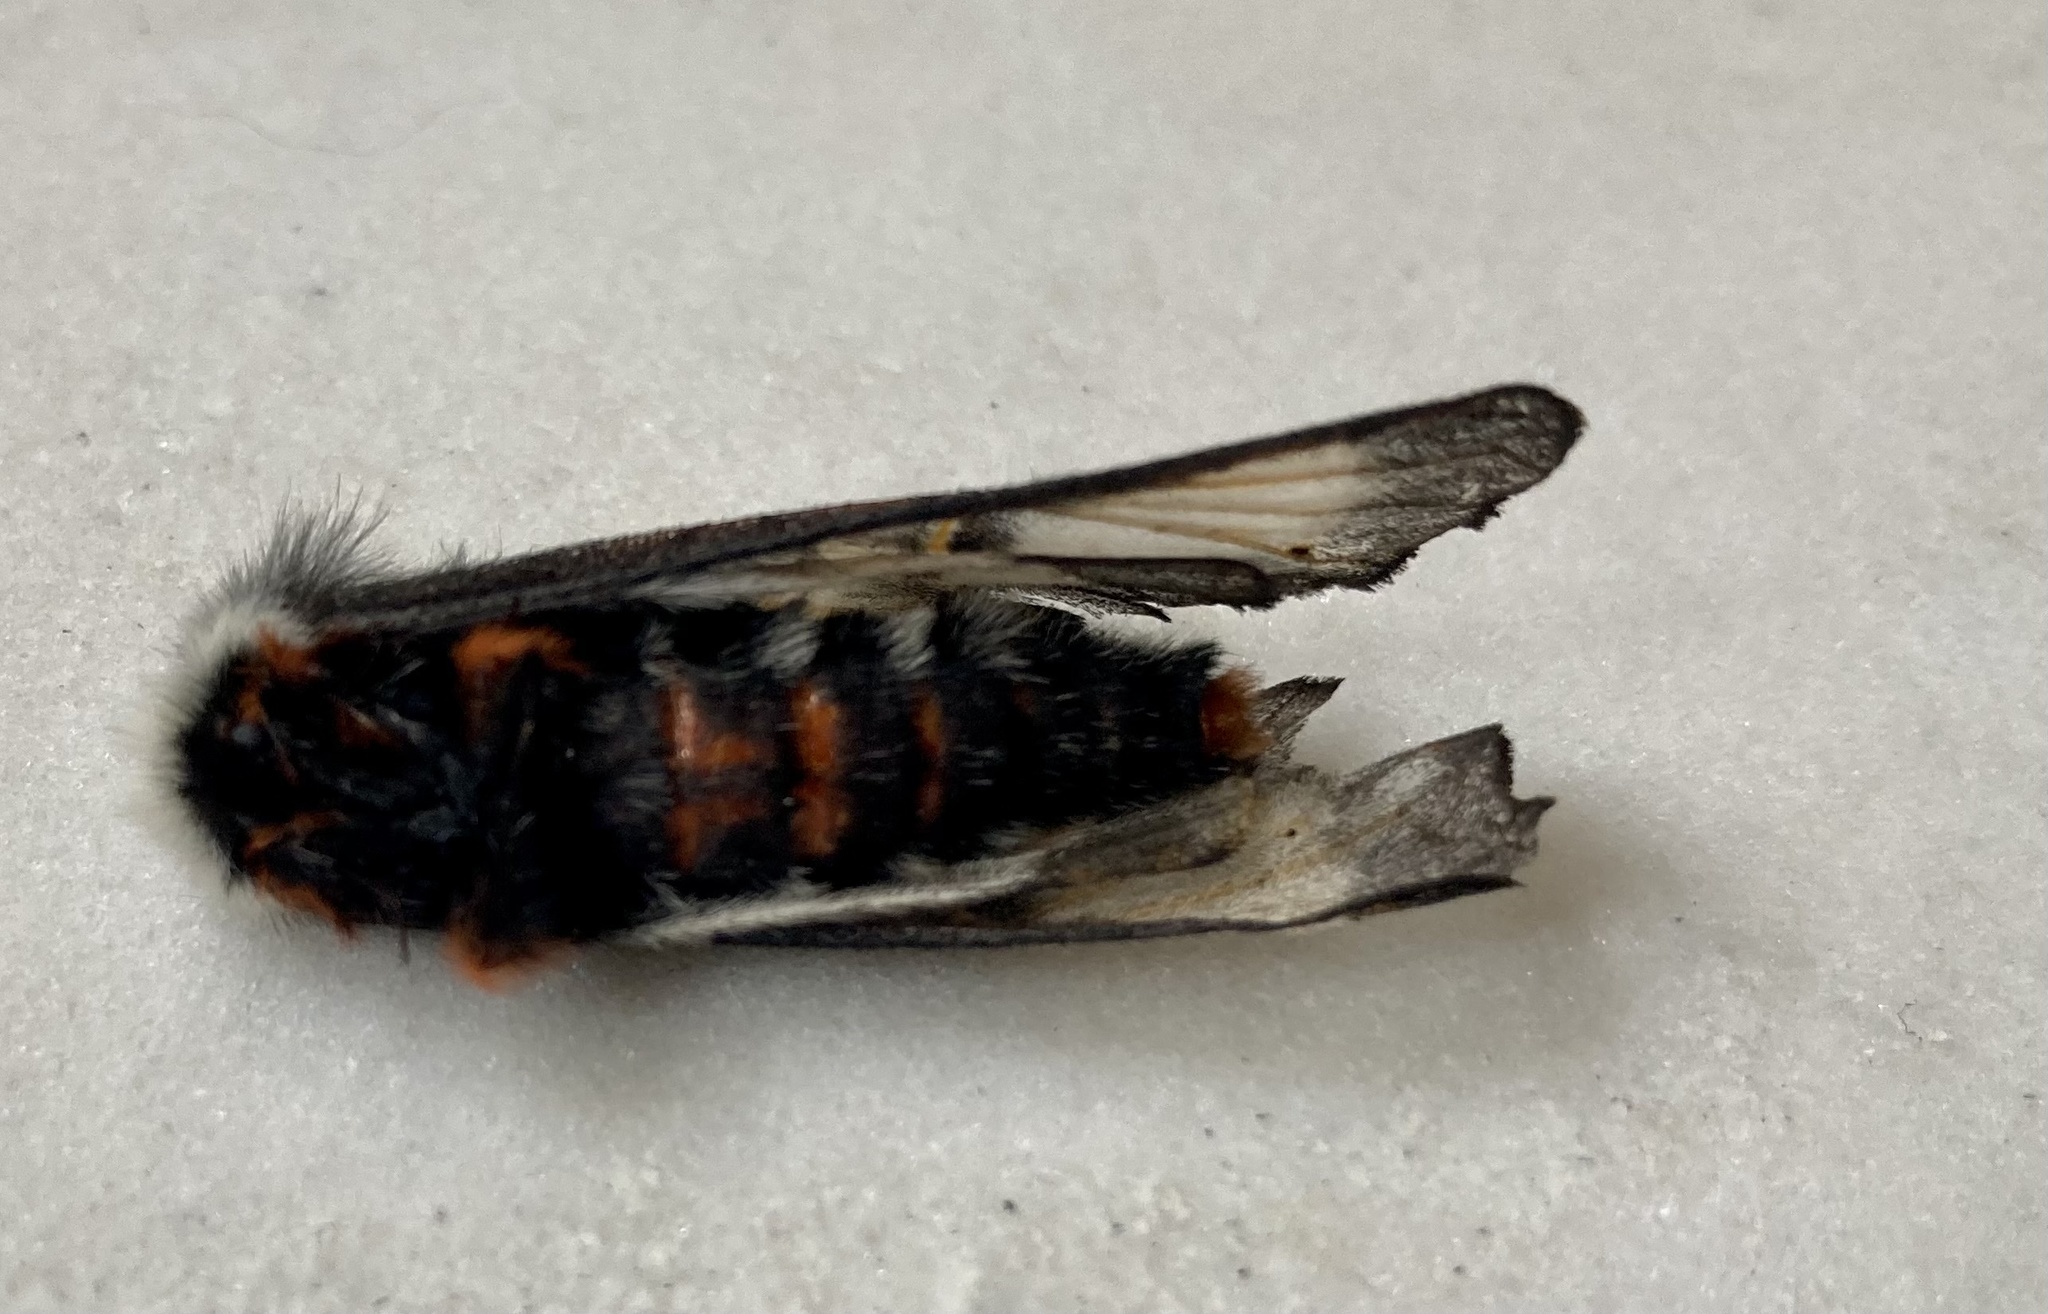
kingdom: Animalia
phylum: Arthropoda
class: Insecta
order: Lepidoptera
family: Saturniidae
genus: Hemileuca
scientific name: Hemileuca peigleri
